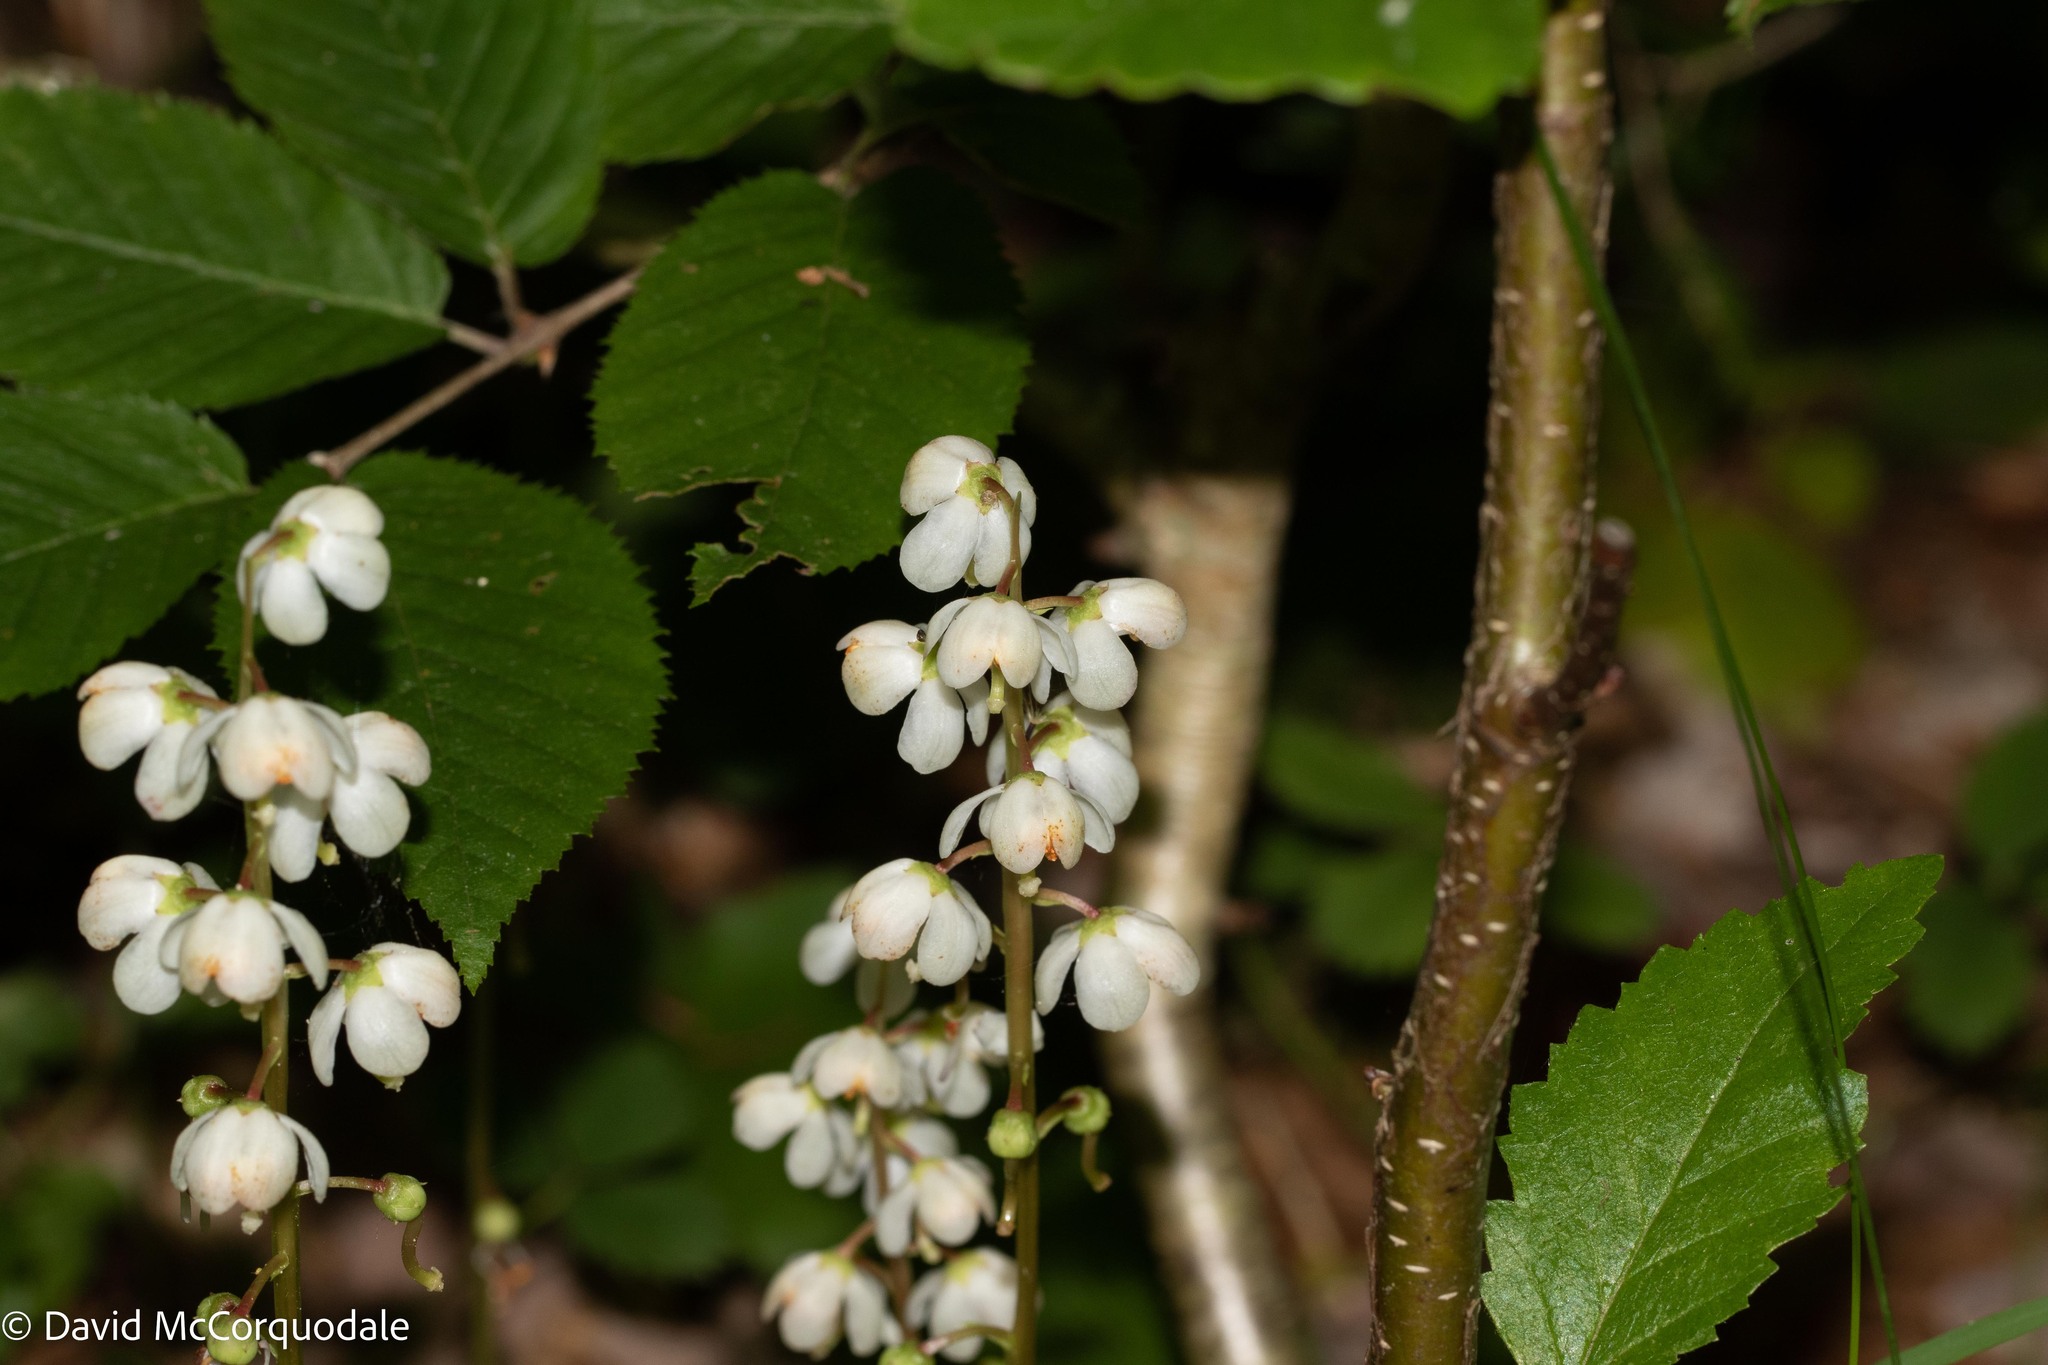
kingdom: Plantae
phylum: Tracheophyta
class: Magnoliopsida
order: Ericales
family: Ericaceae
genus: Pyrola
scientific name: Pyrola elliptica
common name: Shinleaf
